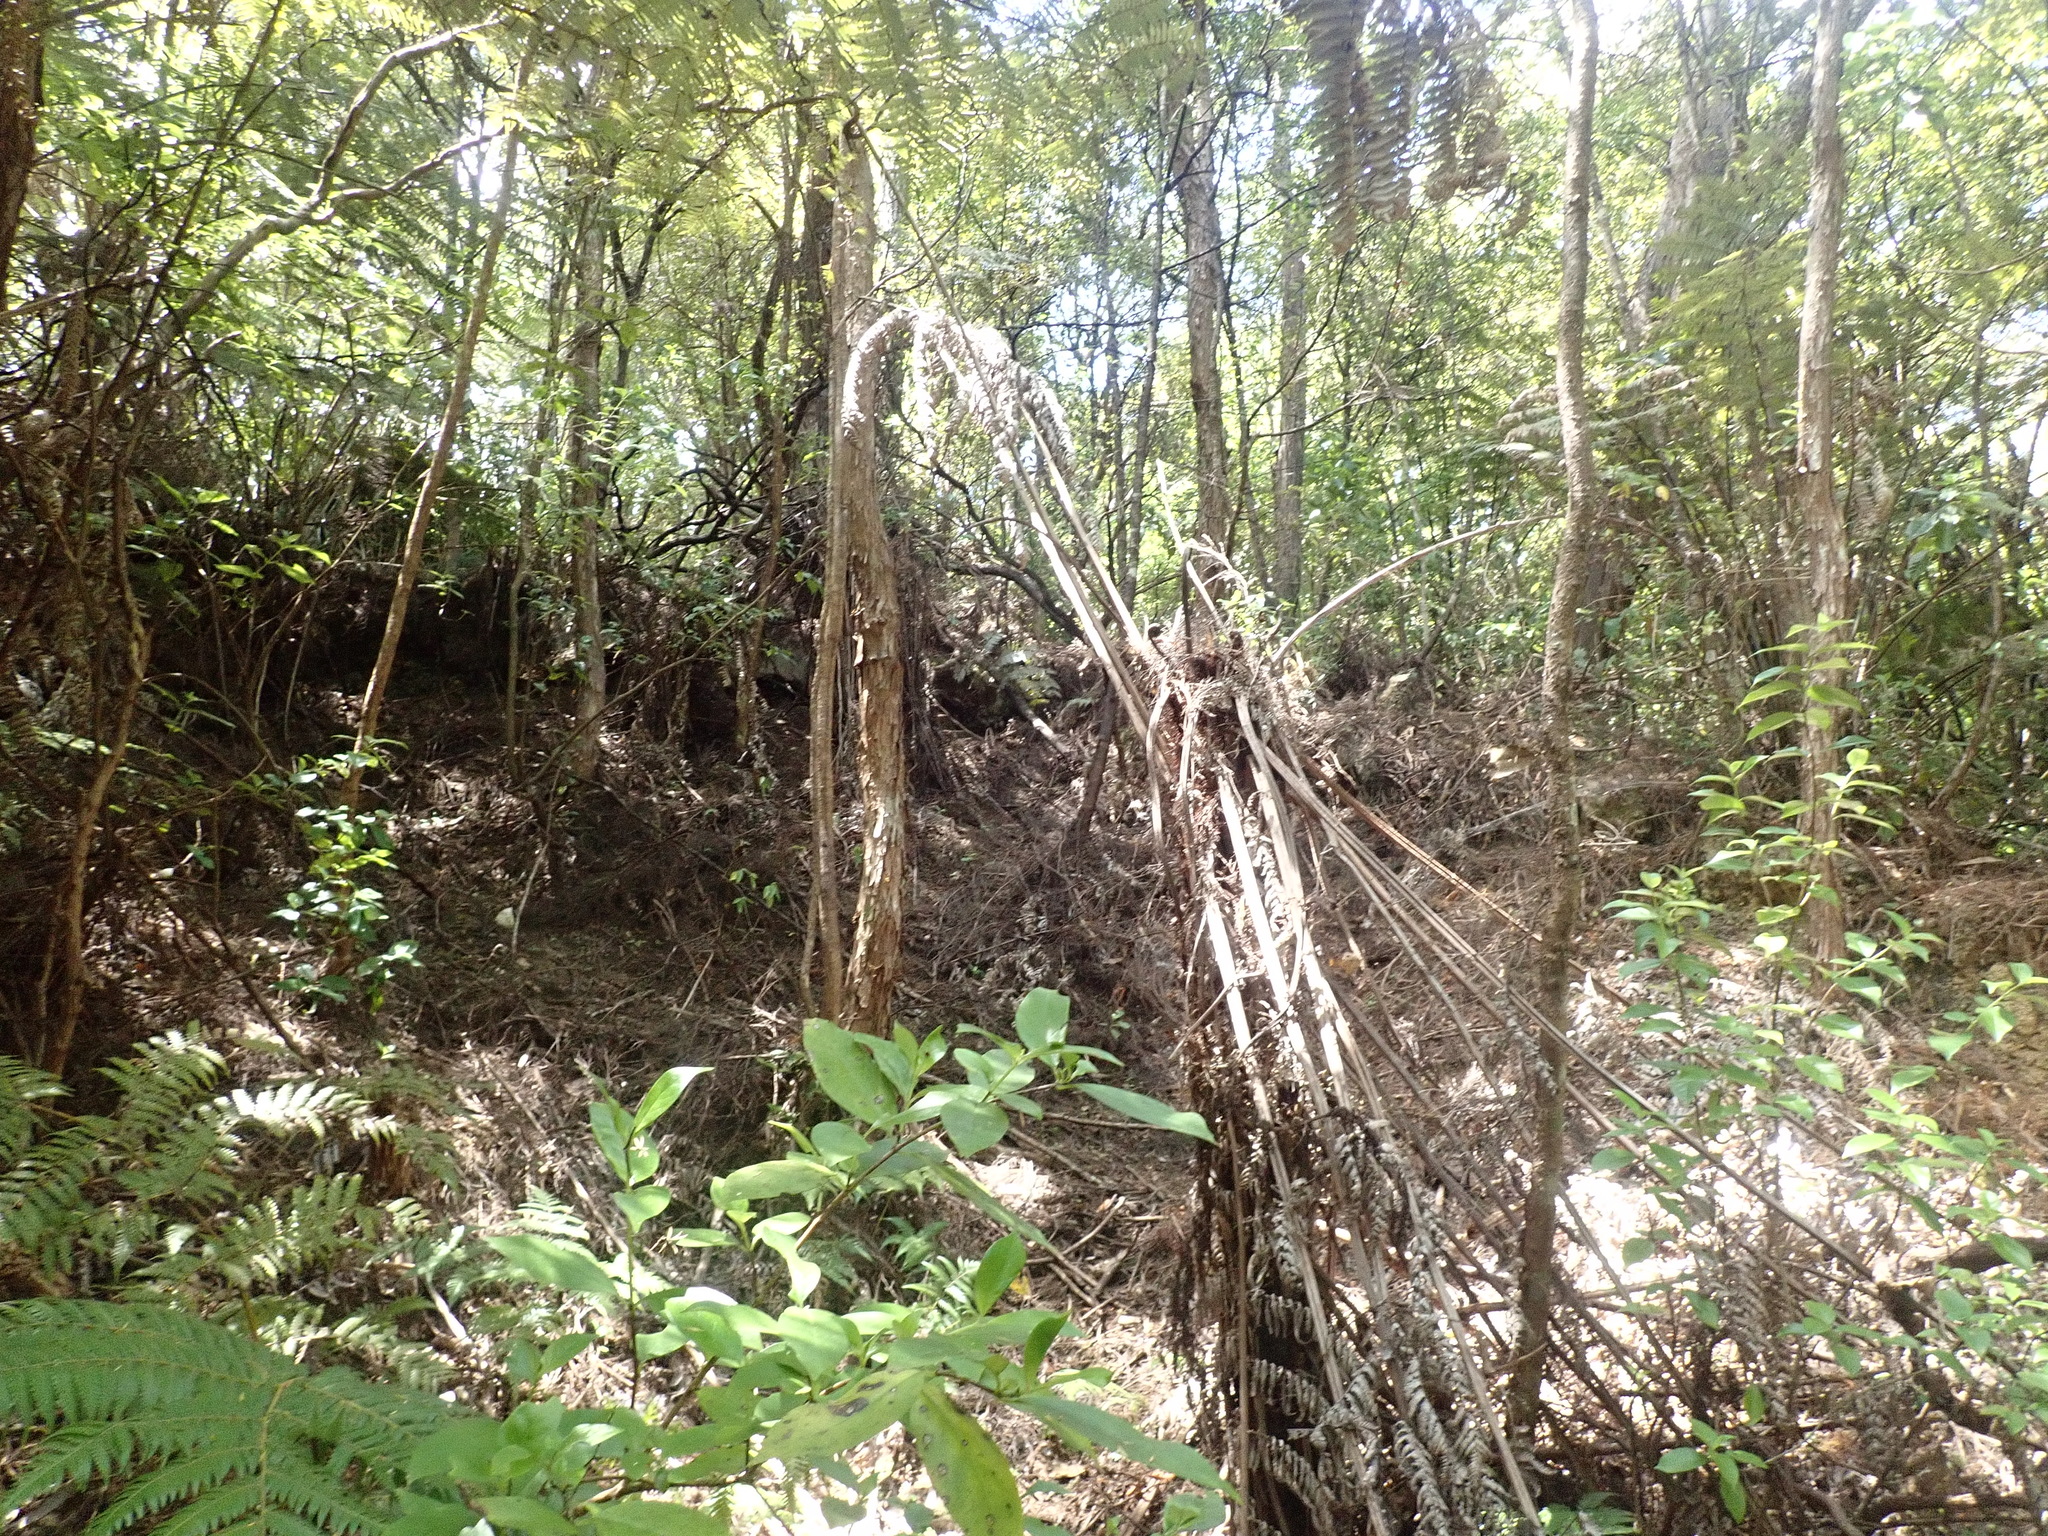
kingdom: Plantae
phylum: Tracheophyta
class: Polypodiopsida
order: Cyatheales
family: Cyatheaceae
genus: Alsophila
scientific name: Alsophila dealbata
